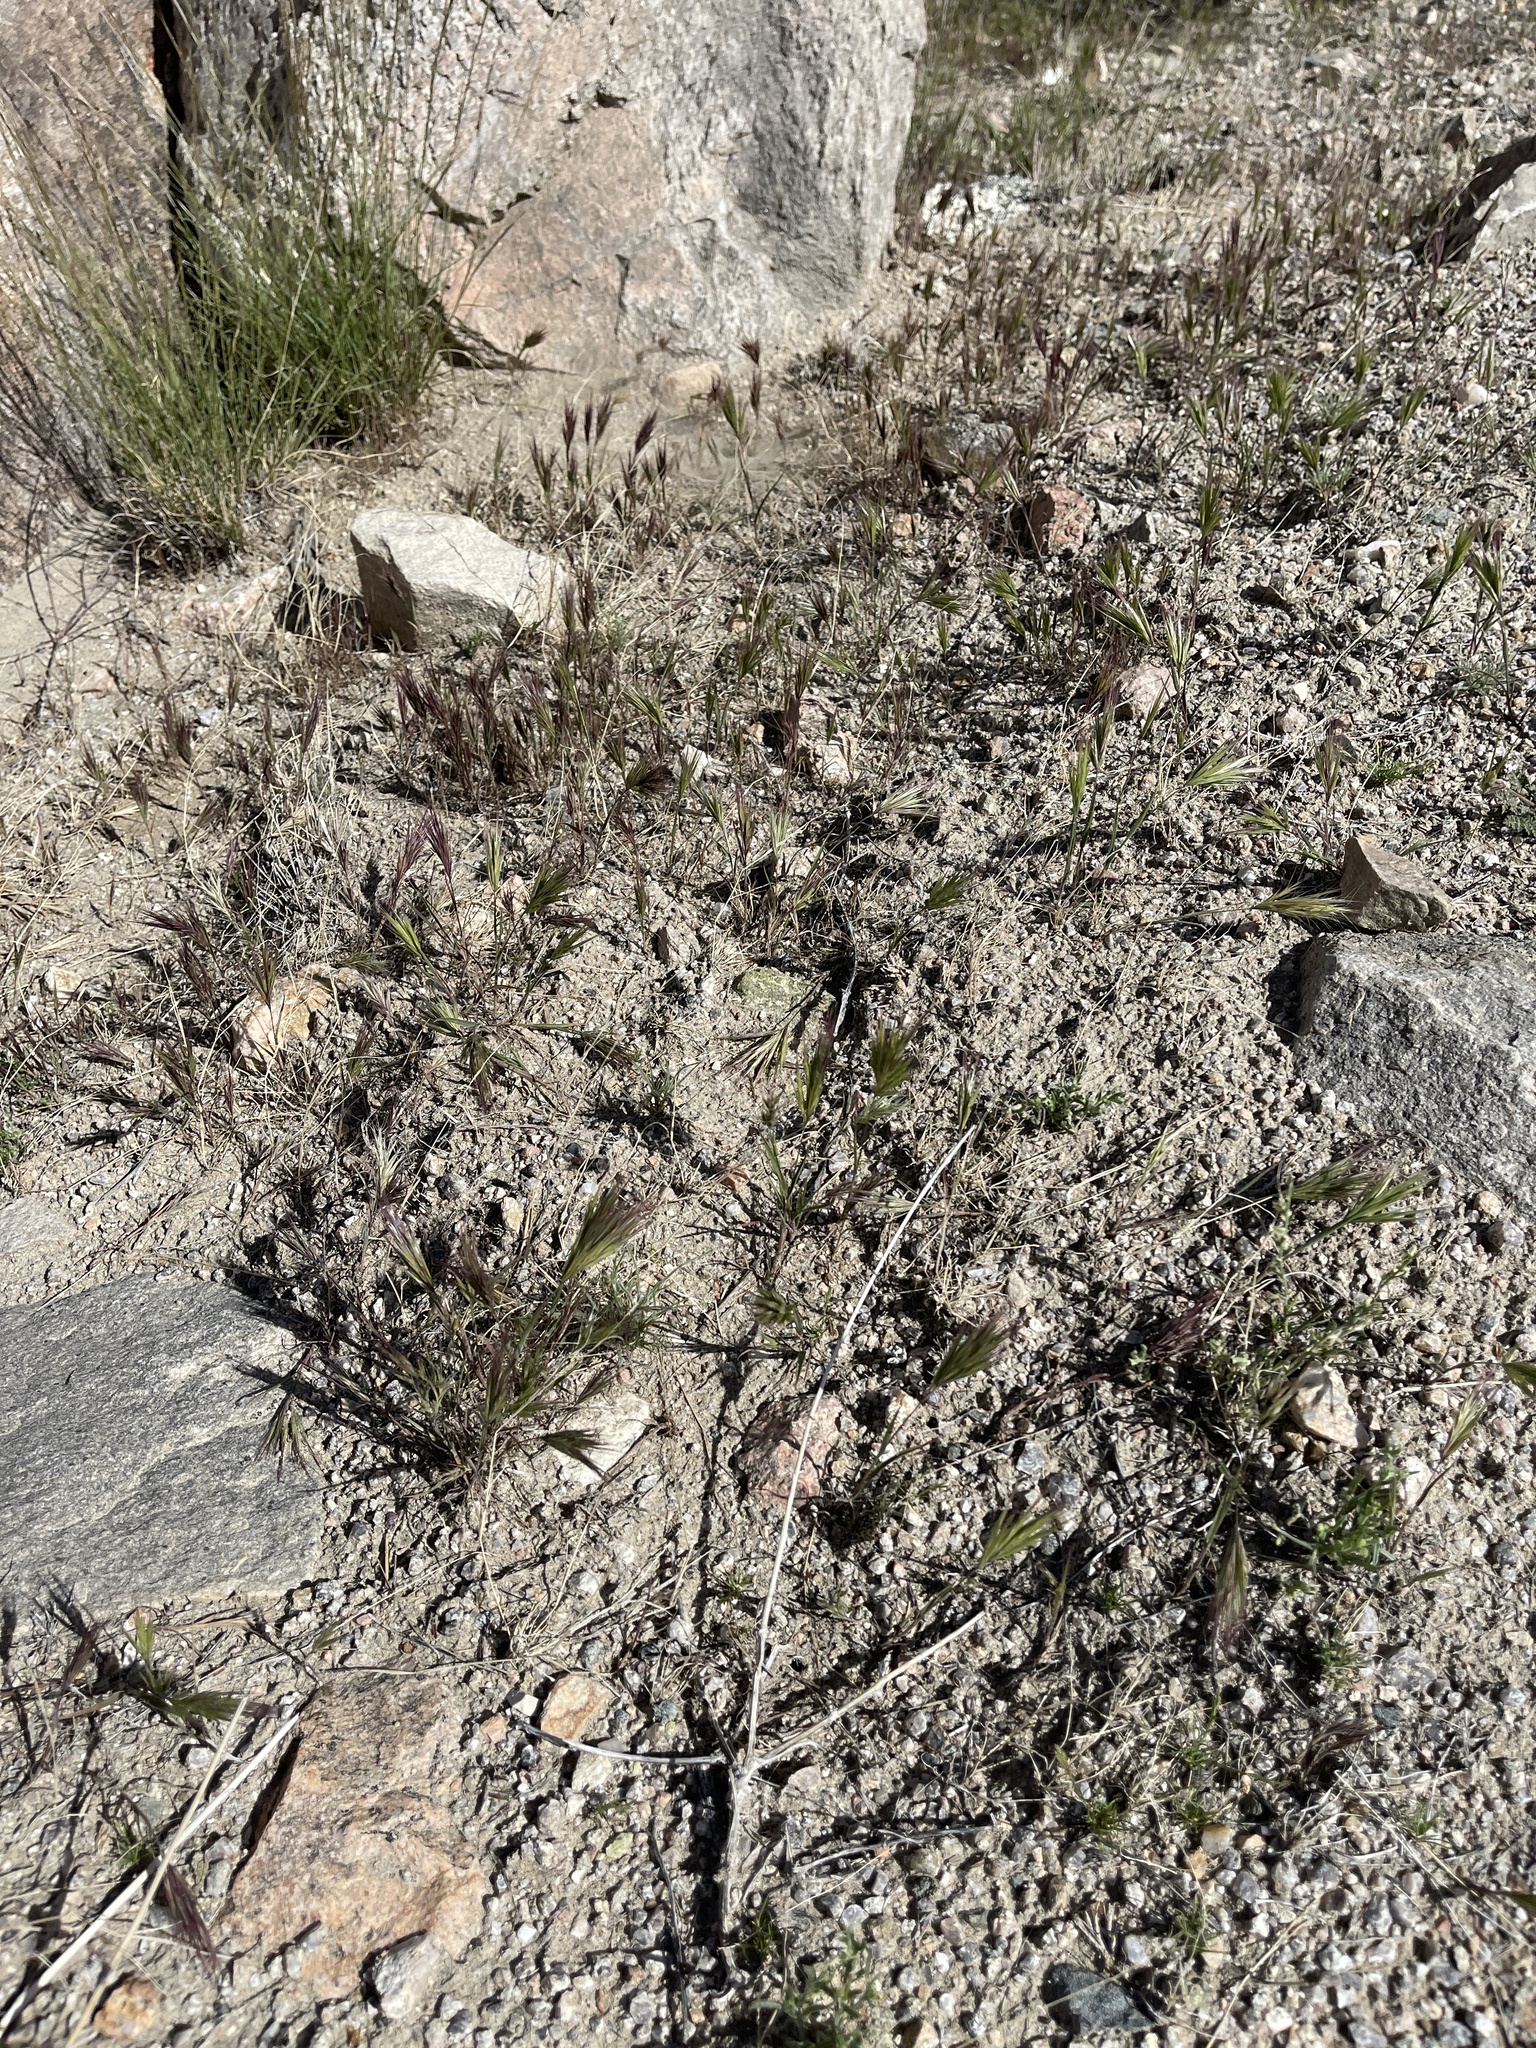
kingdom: Plantae
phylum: Tracheophyta
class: Liliopsida
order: Poales
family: Poaceae
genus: Bromus
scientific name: Bromus rubens
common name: Red brome
